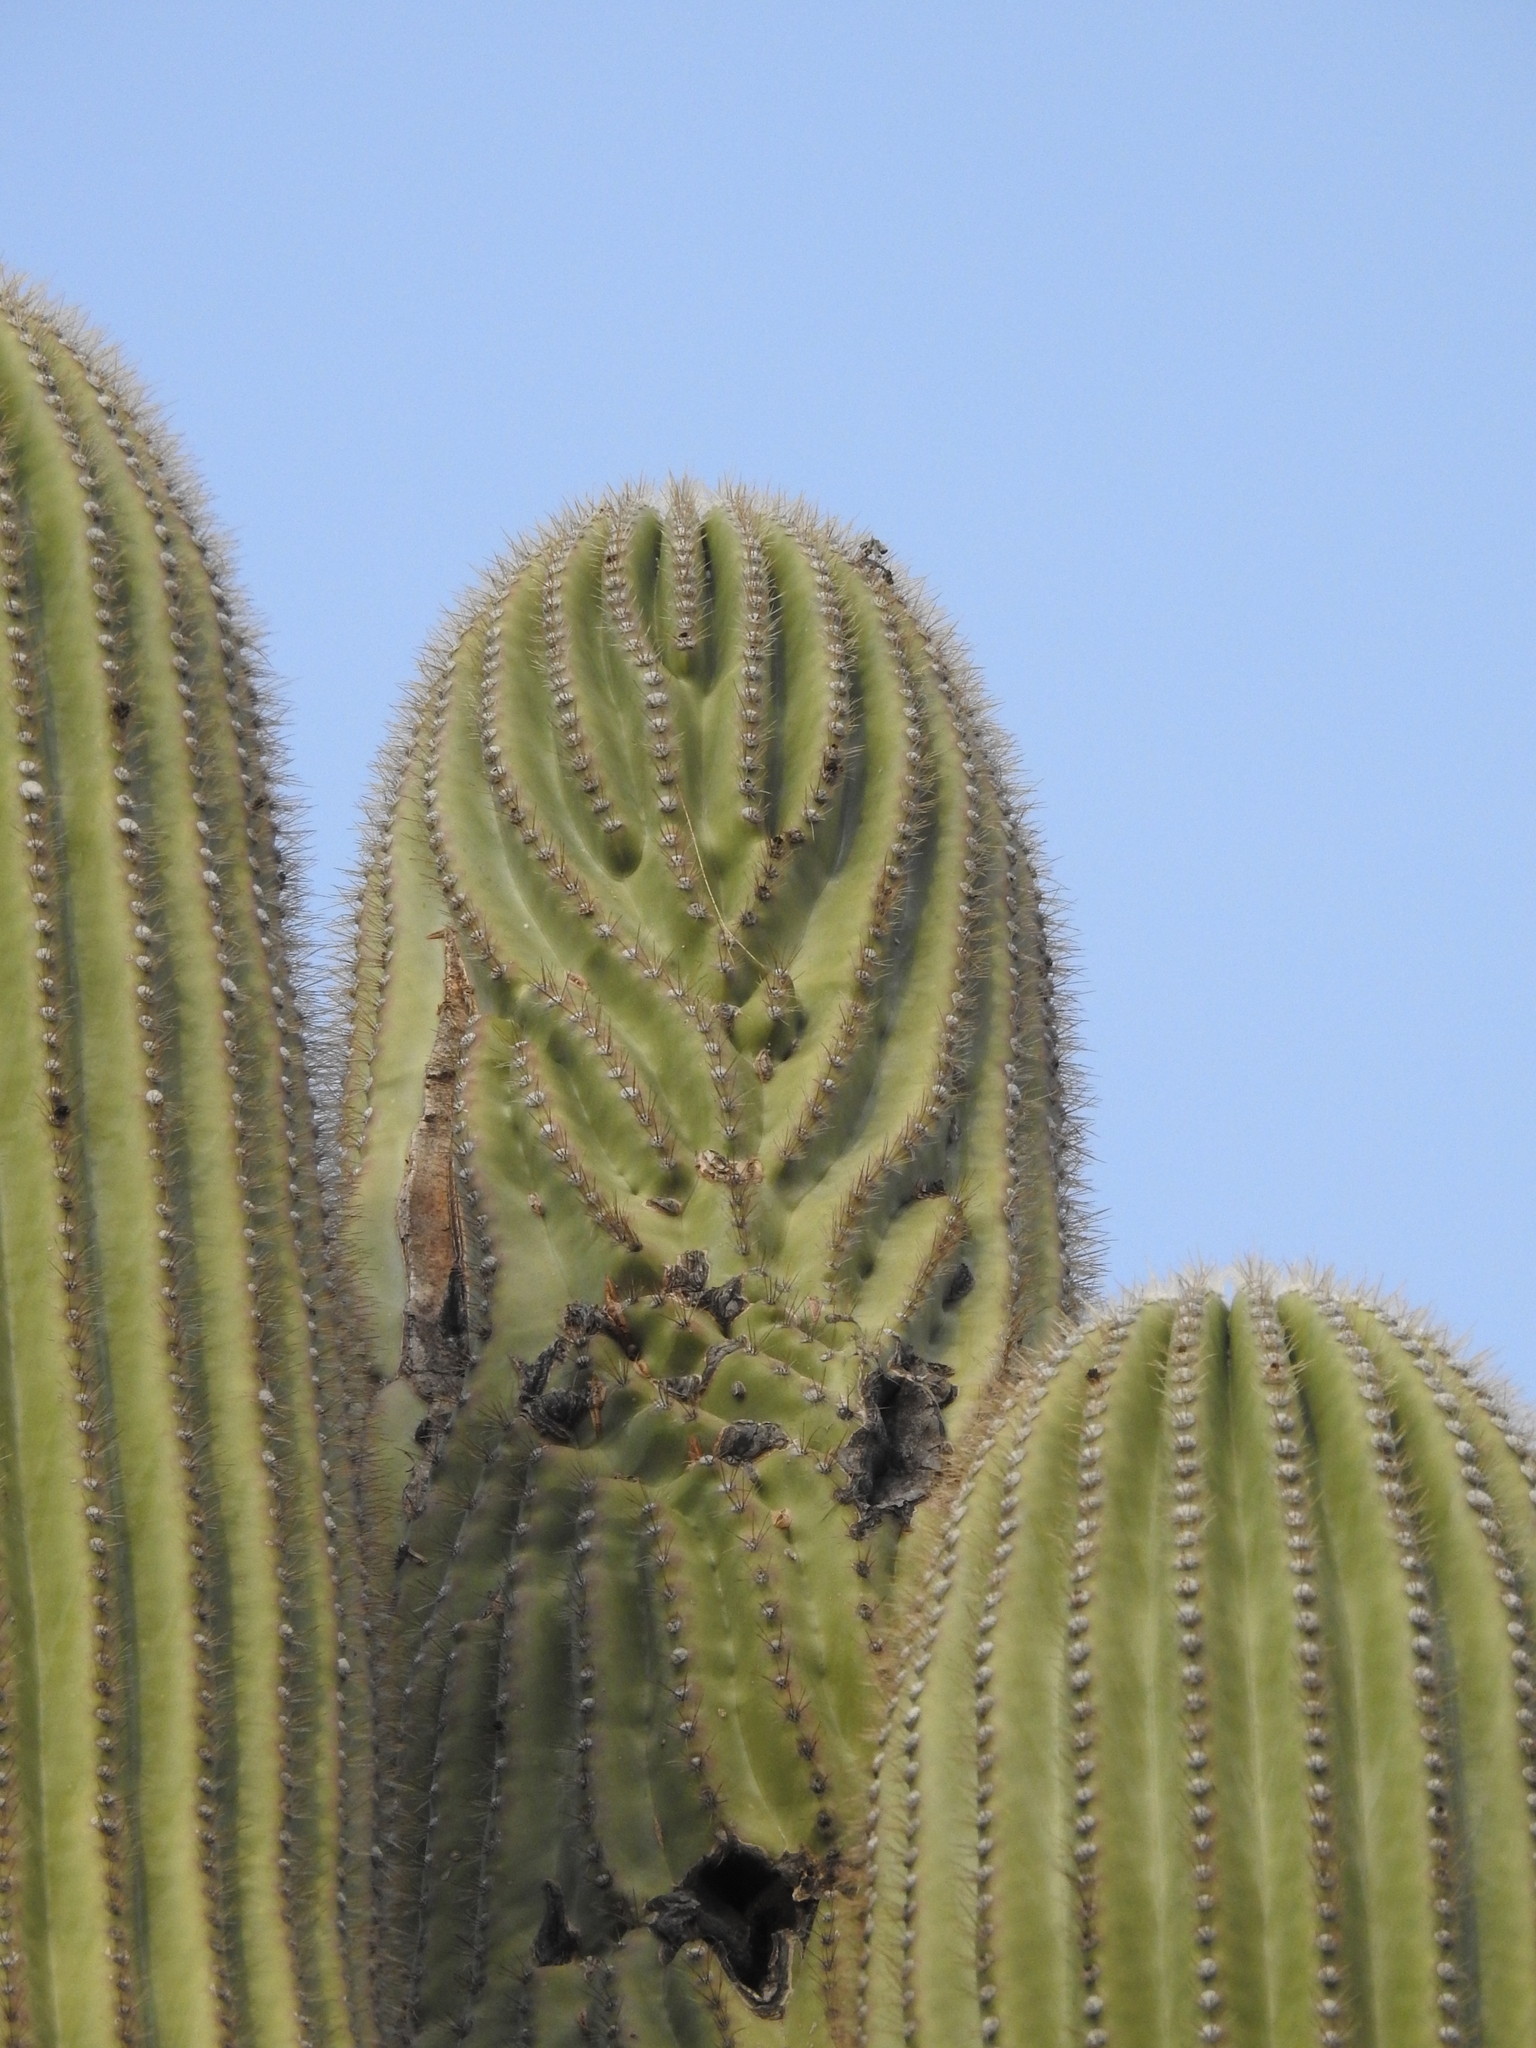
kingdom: Plantae
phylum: Tracheophyta
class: Magnoliopsida
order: Caryophyllales
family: Cactaceae
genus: Carnegiea
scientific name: Carnegiea gigantea
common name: Saguaro
